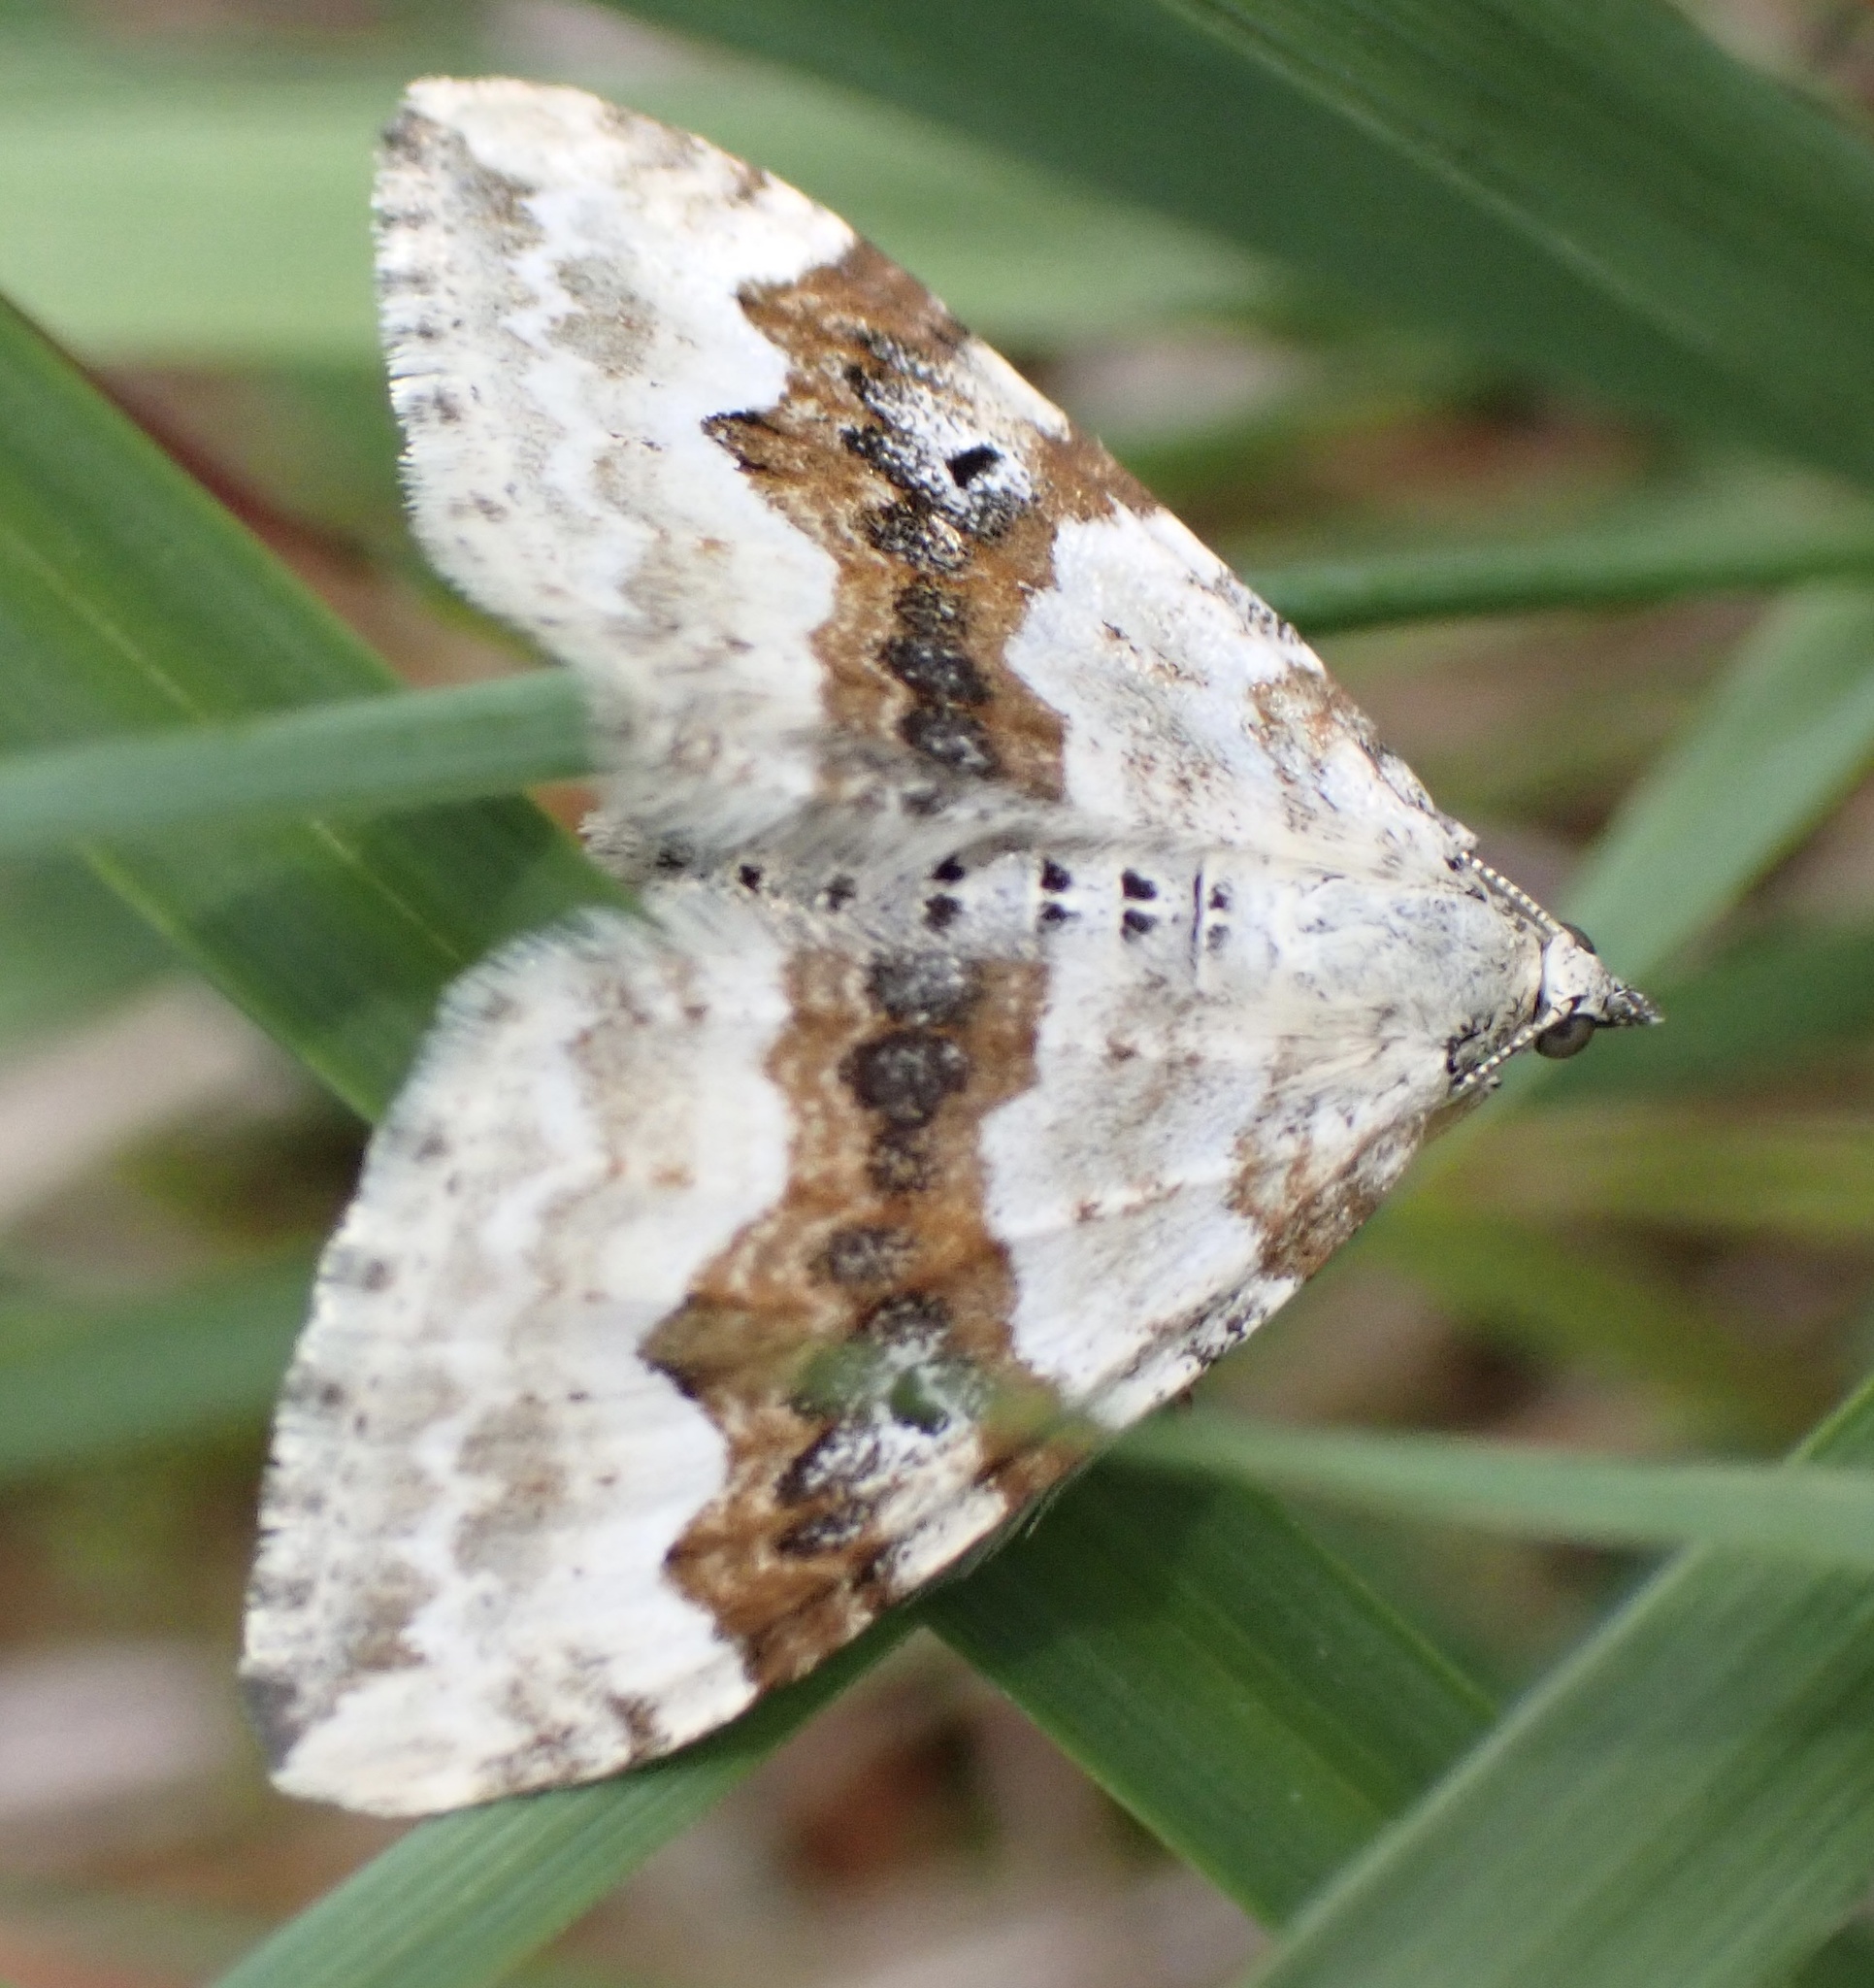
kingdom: Animalia
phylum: Arthropoda
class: Insecta
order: Lepidoptera
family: Geometridae
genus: Xanthorhoe
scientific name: Xanthorhoe montanata
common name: Silver-ground carpet
